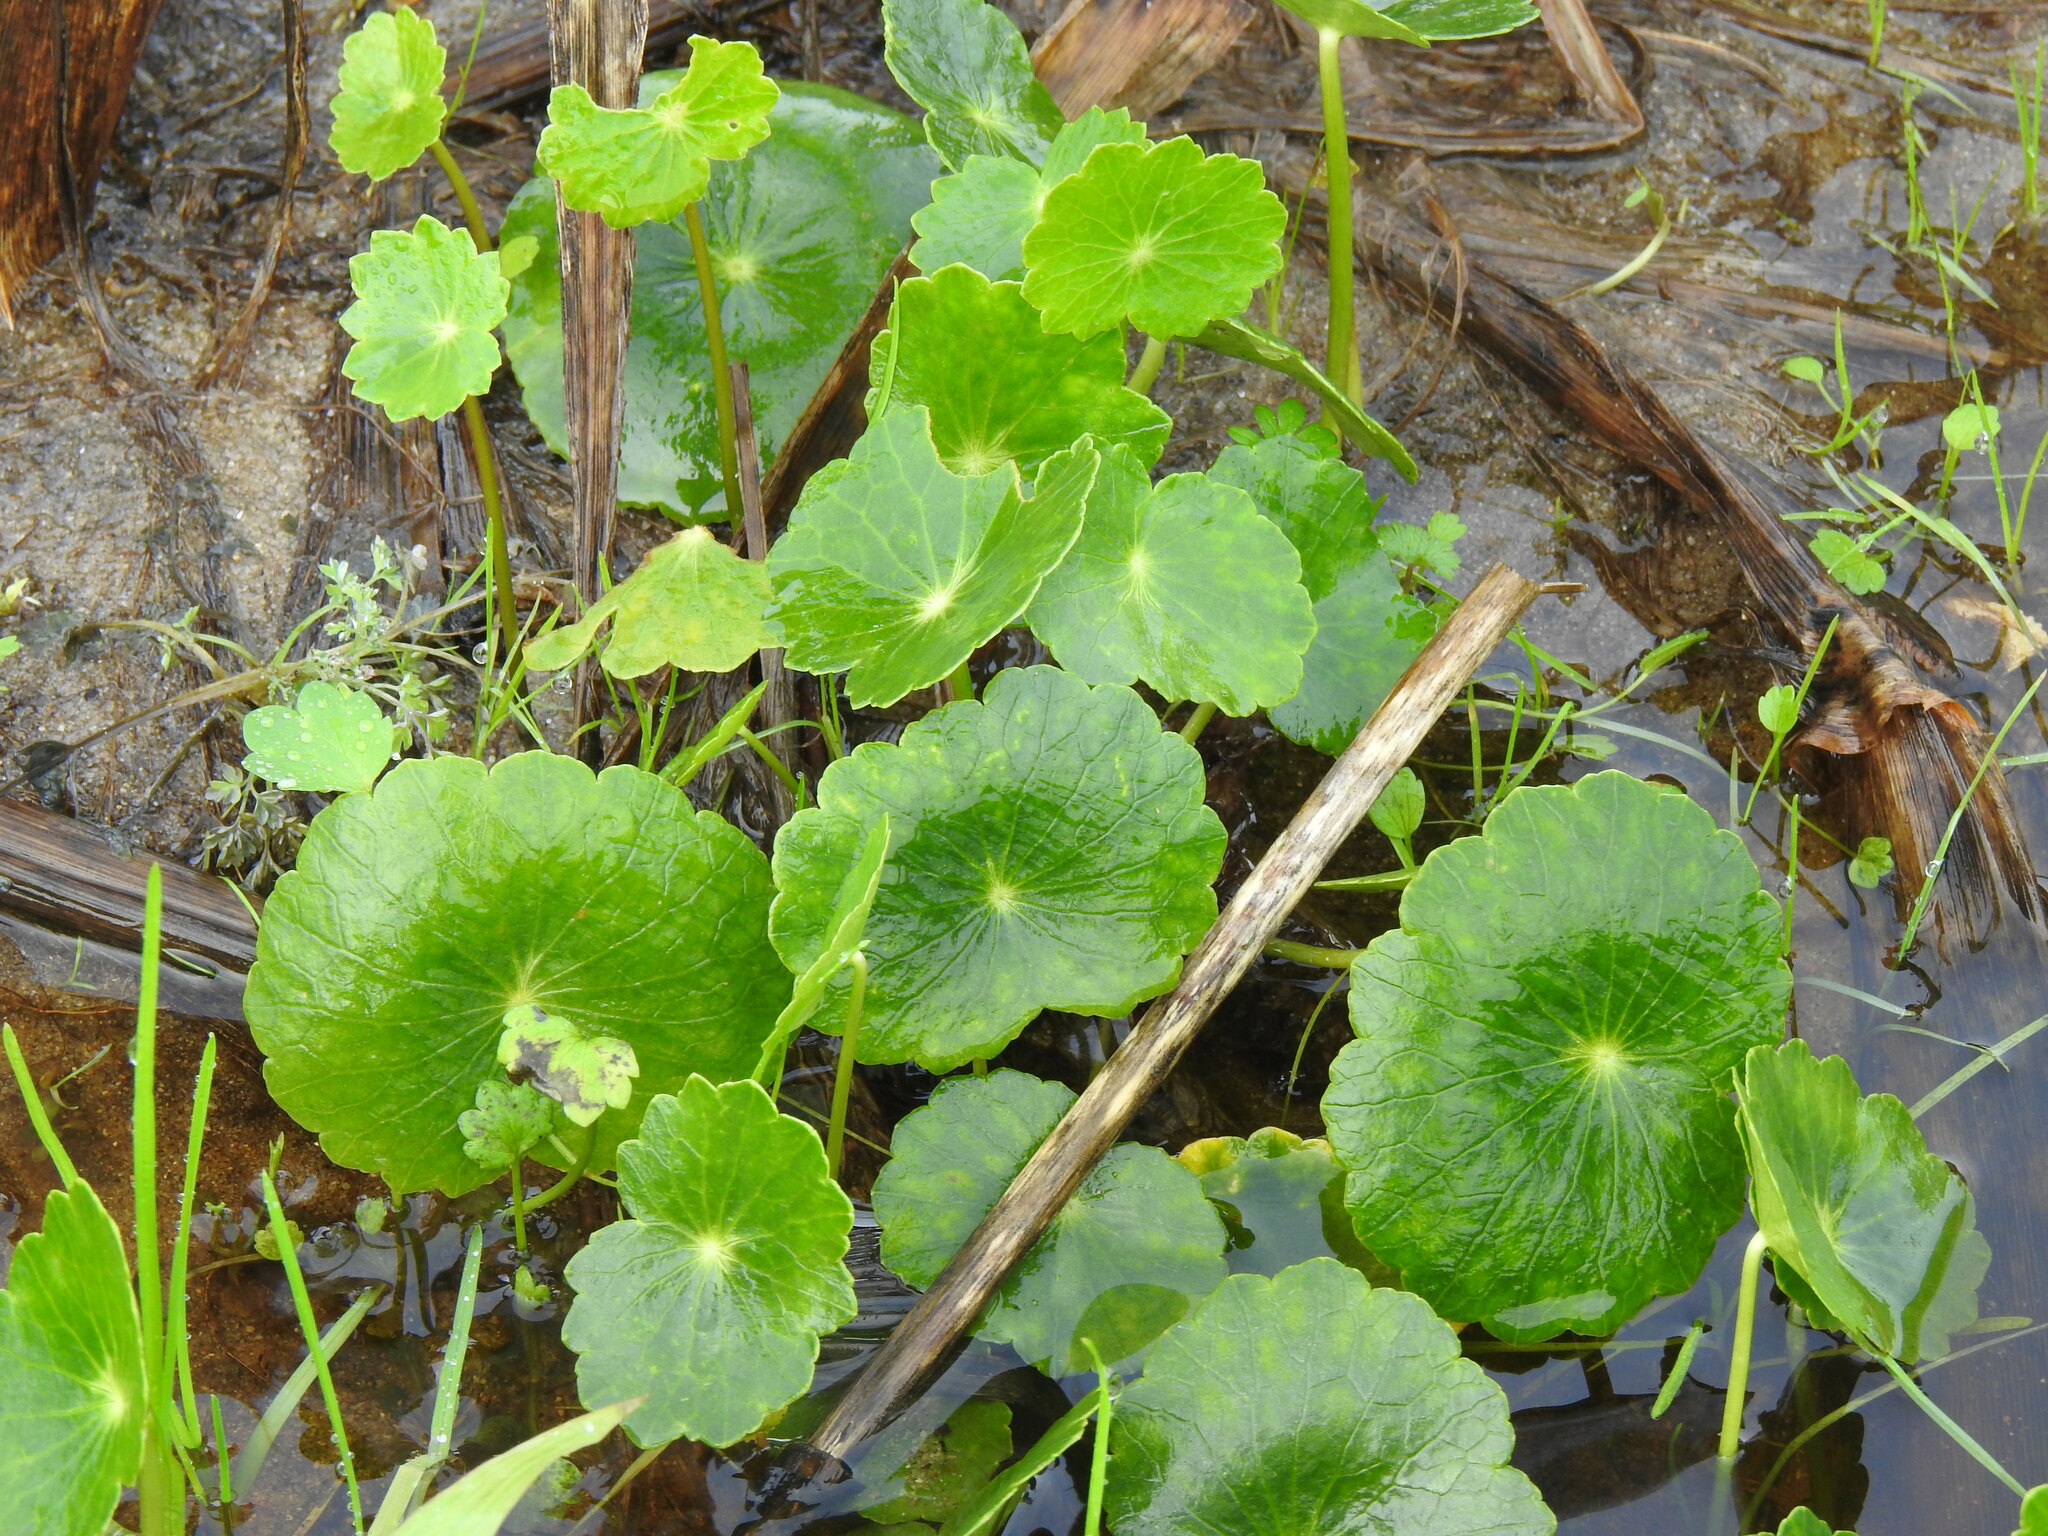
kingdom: Plantae
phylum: Tracheophyta
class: Magnoliopsida
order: Apiales
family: Araliaceae
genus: Hydrocotyle
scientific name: Hydrocotyle bonariensis
